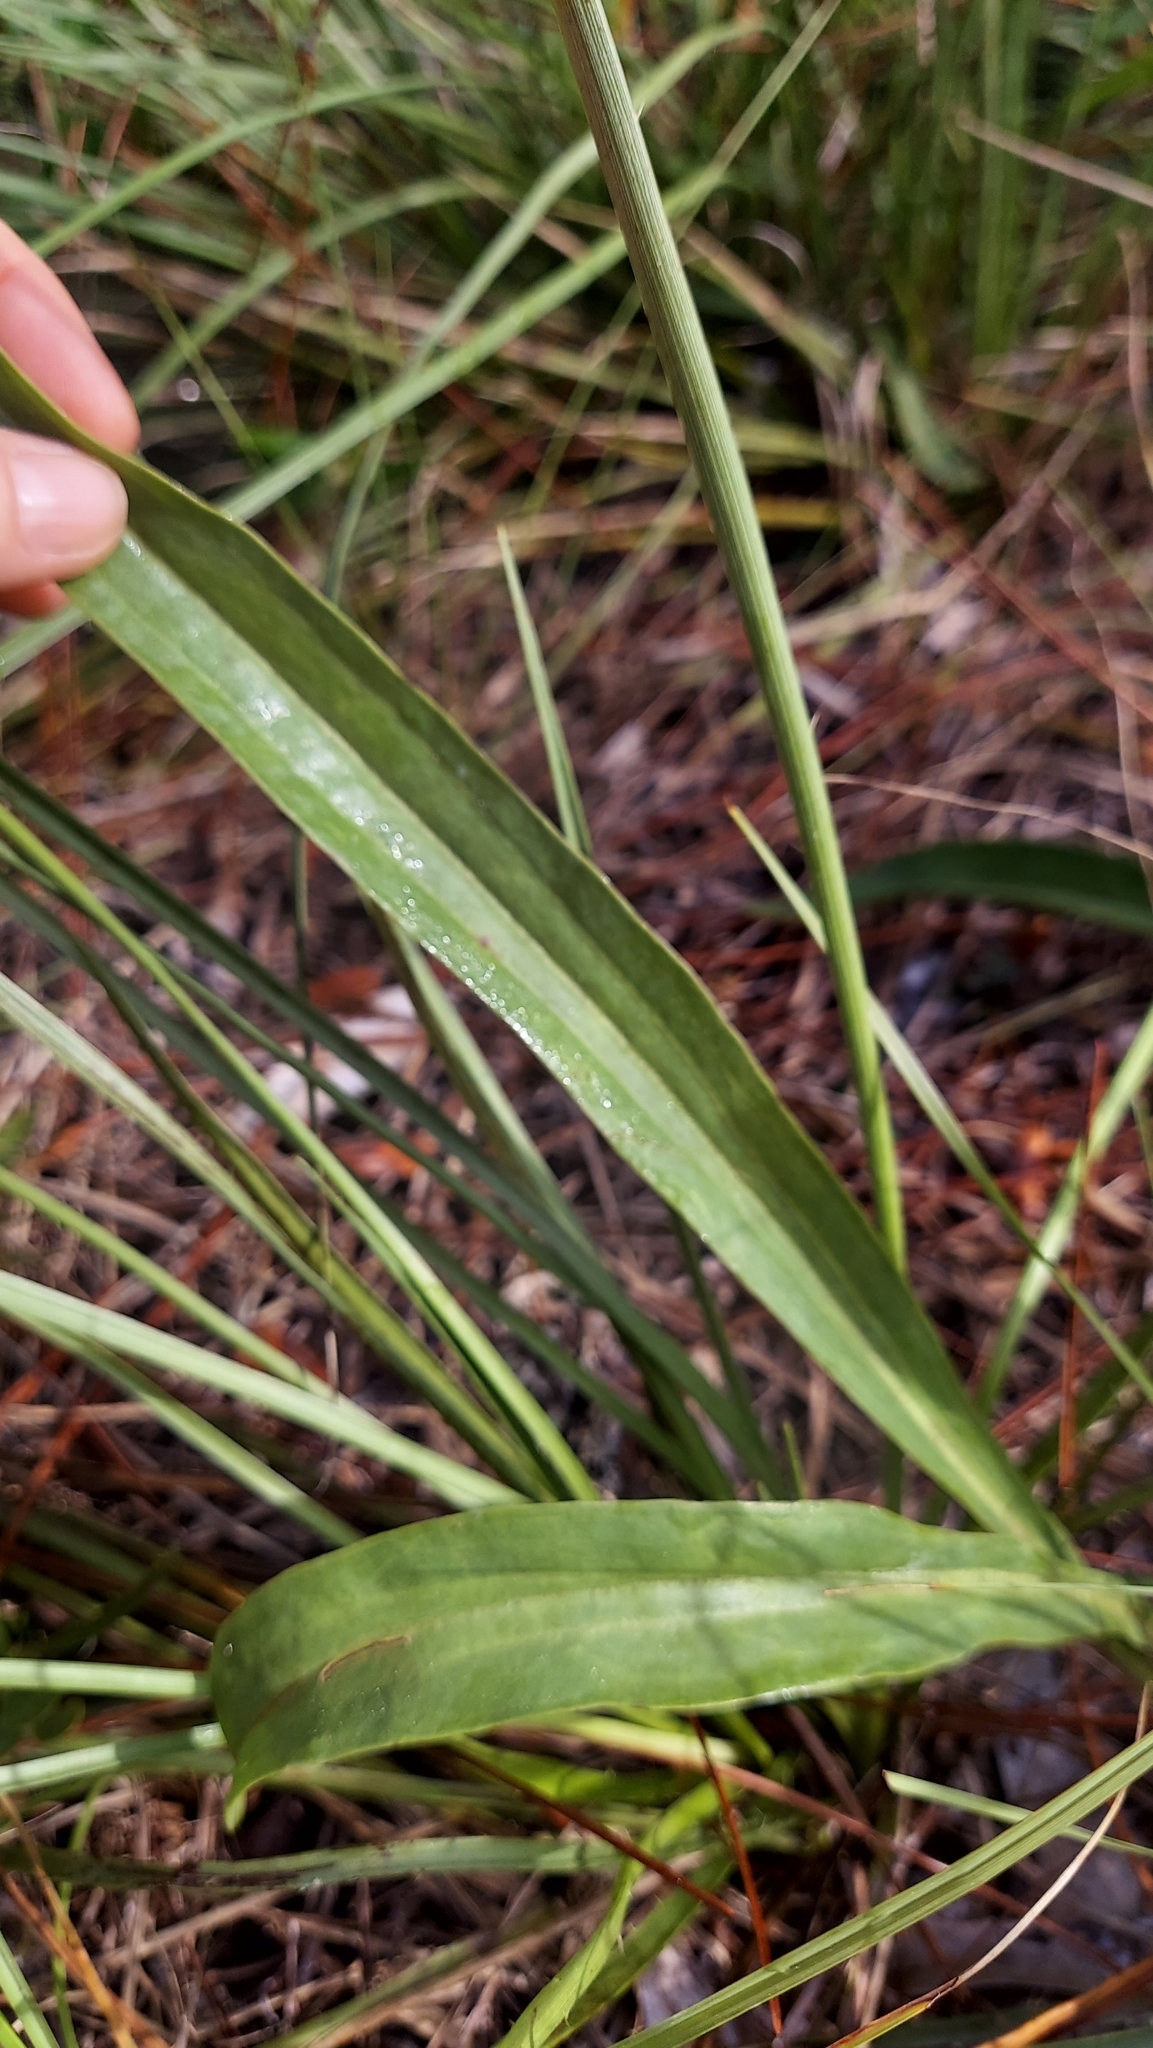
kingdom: Plantae
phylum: Tracheophyta
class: Magnoliopsida
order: Asterales
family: Asteraceae
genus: Arnoglossum
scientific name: Arnoglossum ovatum
